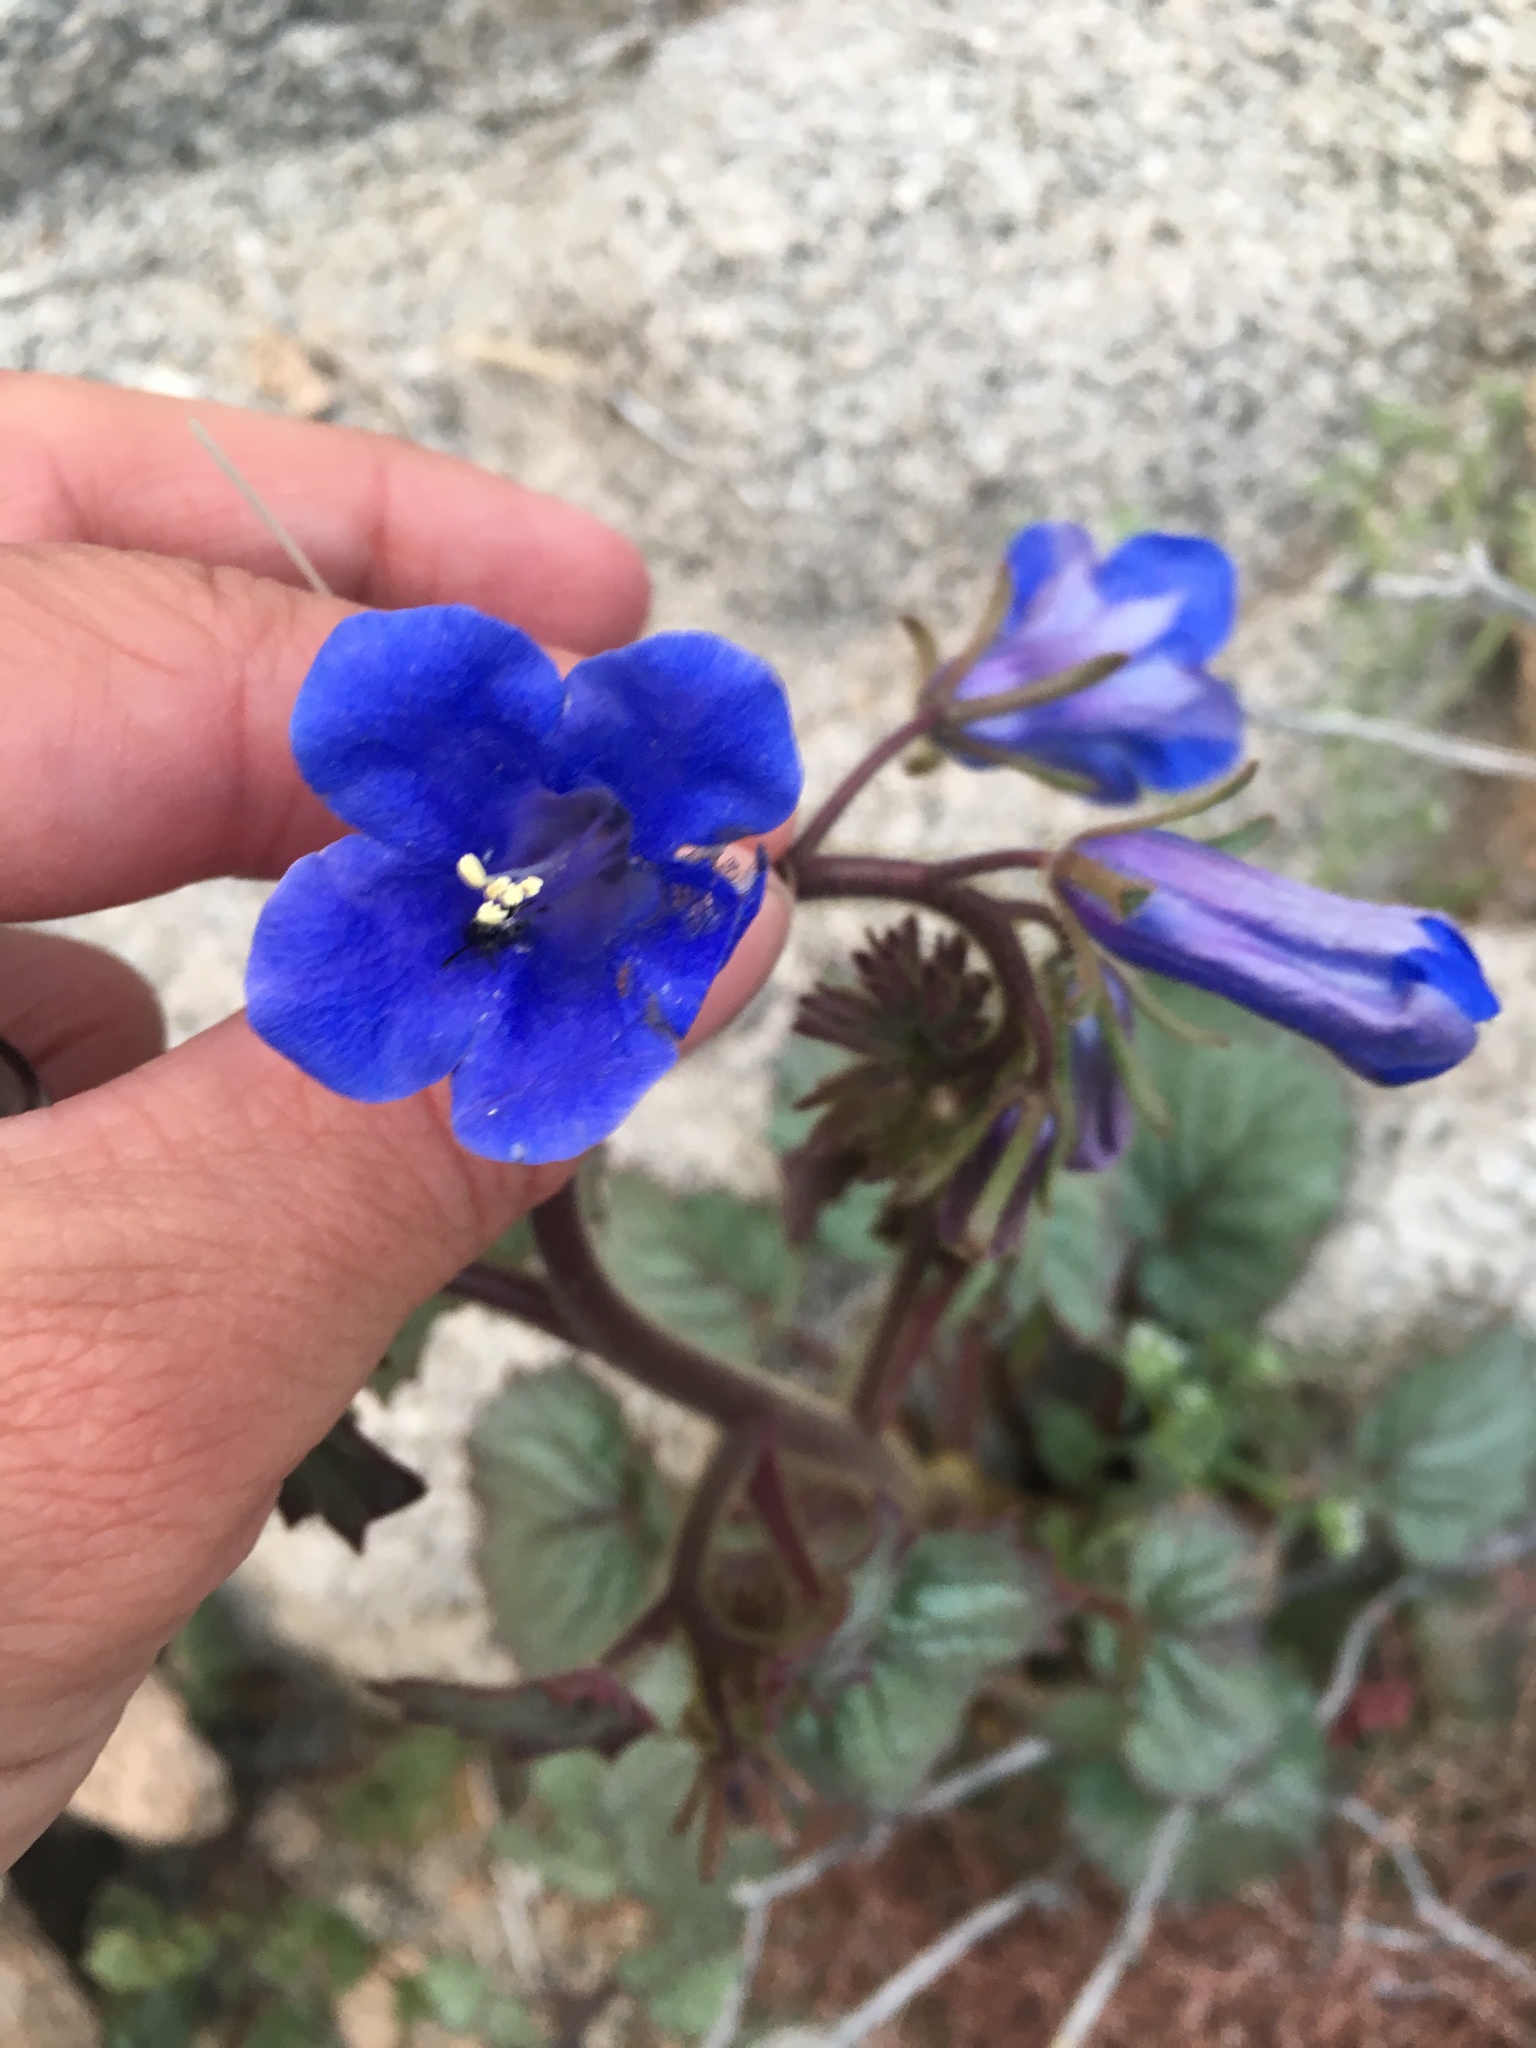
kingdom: Plantae
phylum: Tracheophyta
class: Magnoliopsida
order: Boraginales
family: Hydrophyllaceae
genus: Phacelia
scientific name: Phacelia campanularia
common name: California bluebell
